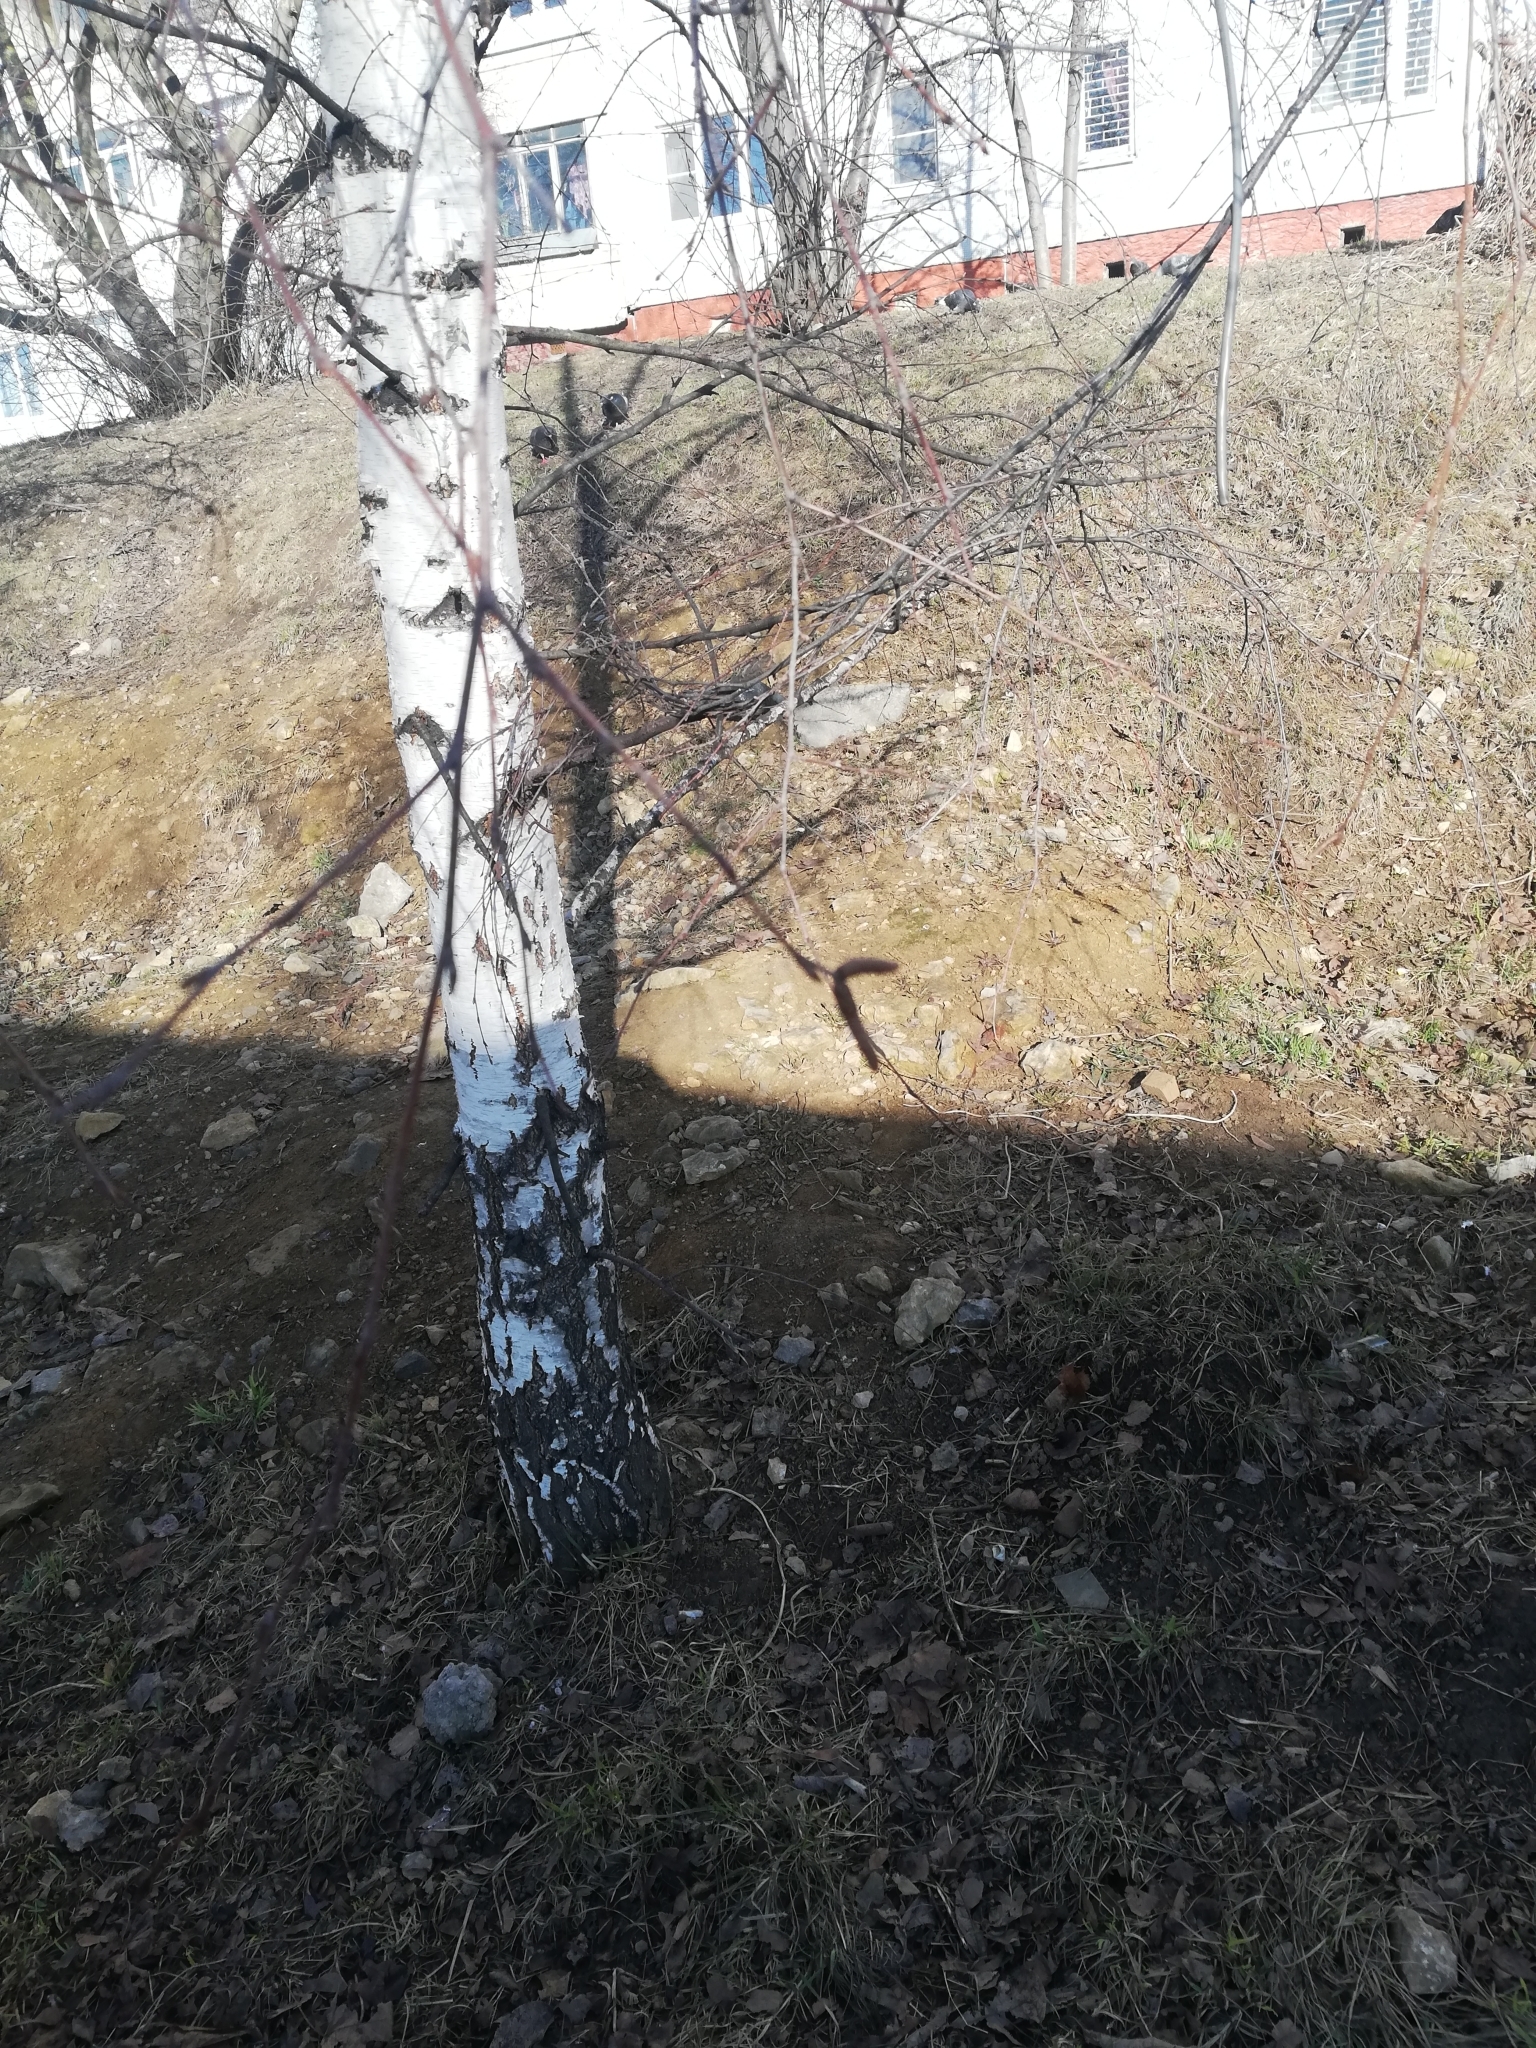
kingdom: Plantae
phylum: Tracheophyta
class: Magnoliopsida
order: Fagales
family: Betulaceae
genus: Betula
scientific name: Betula pendula
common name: Silver birch
